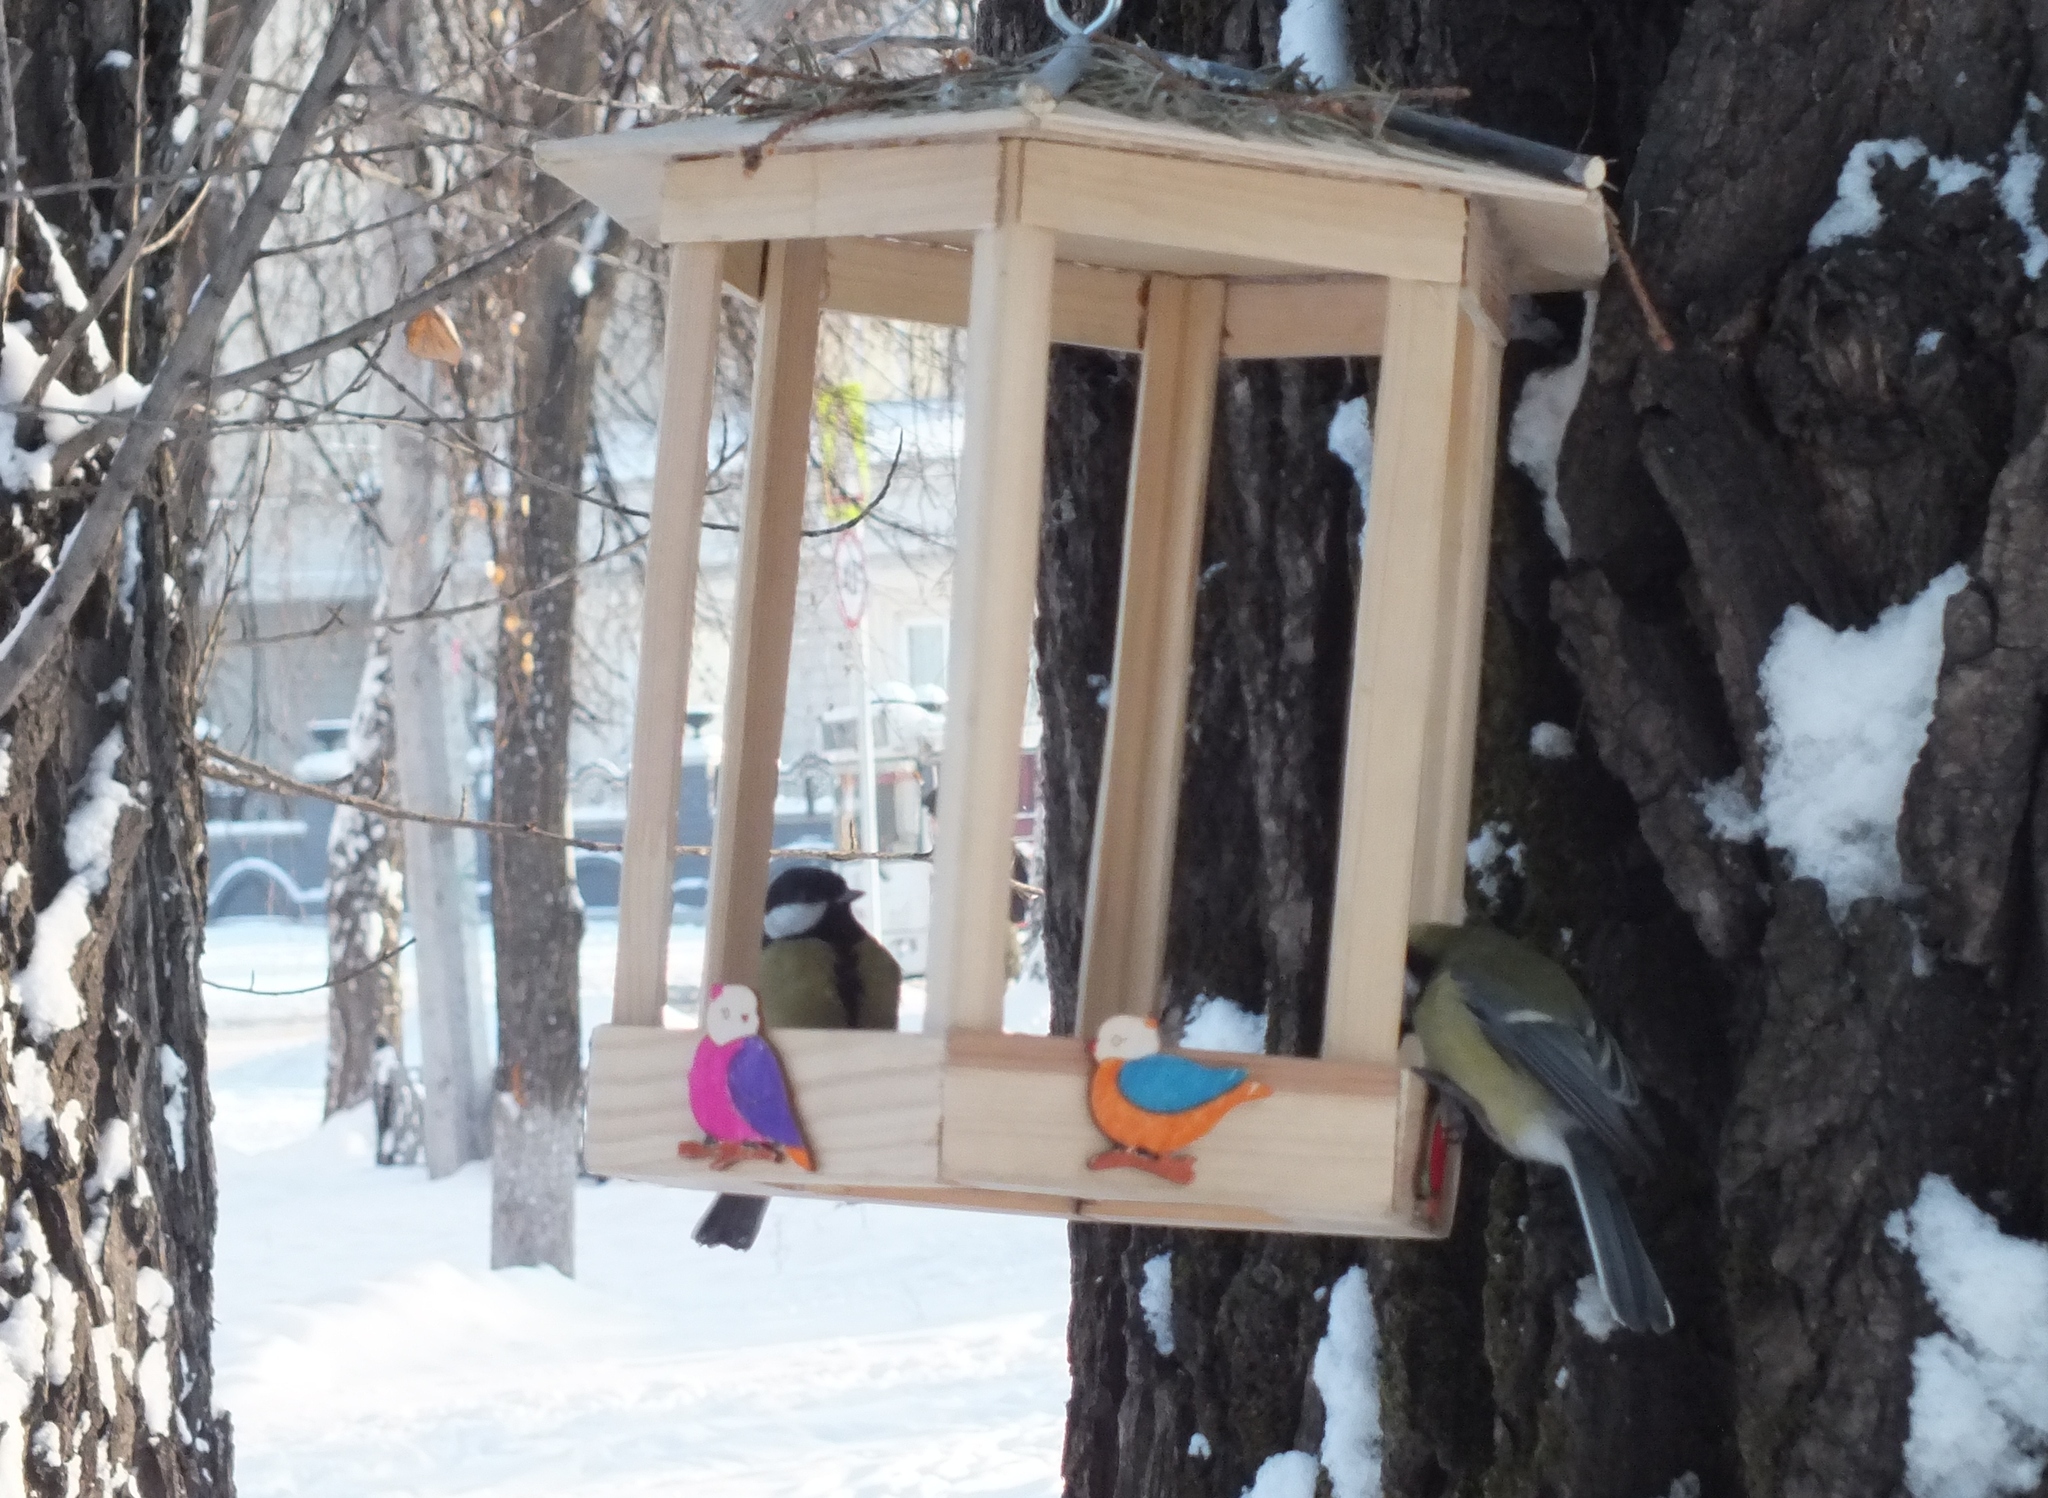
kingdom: Animalia
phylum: Chordata
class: Aves
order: Passeriformes
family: Paridae
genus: Parus
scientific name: Parus major
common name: Great tit
